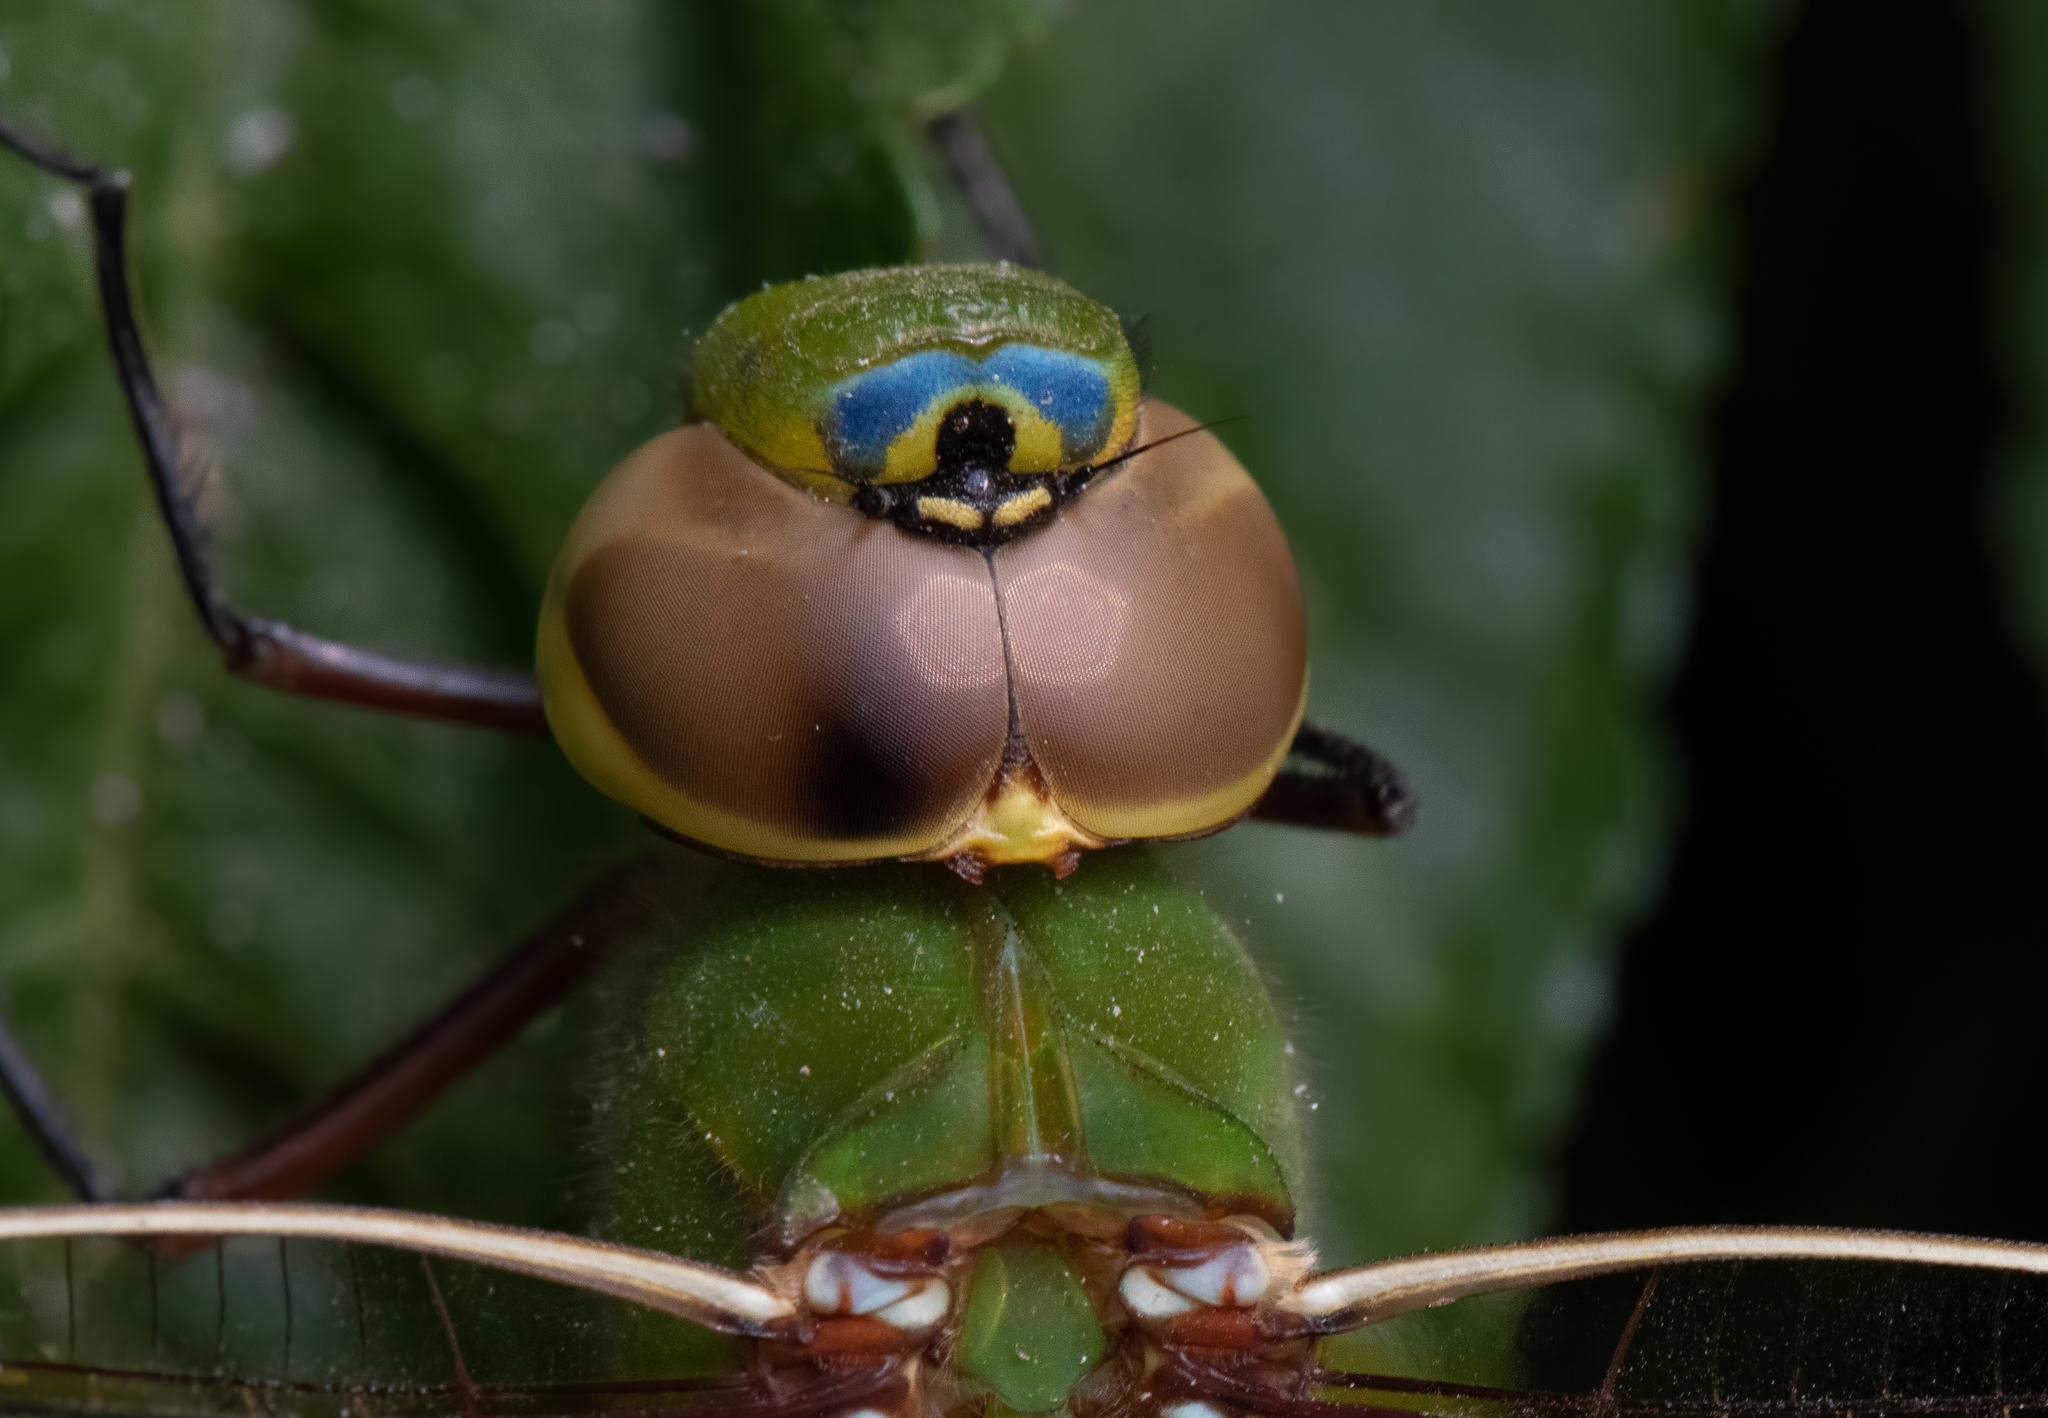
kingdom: Animalia
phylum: Arthropoda
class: Insecta
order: Odonata
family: Aeshnidae
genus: Anax
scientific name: Anax junius
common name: Common green darner
